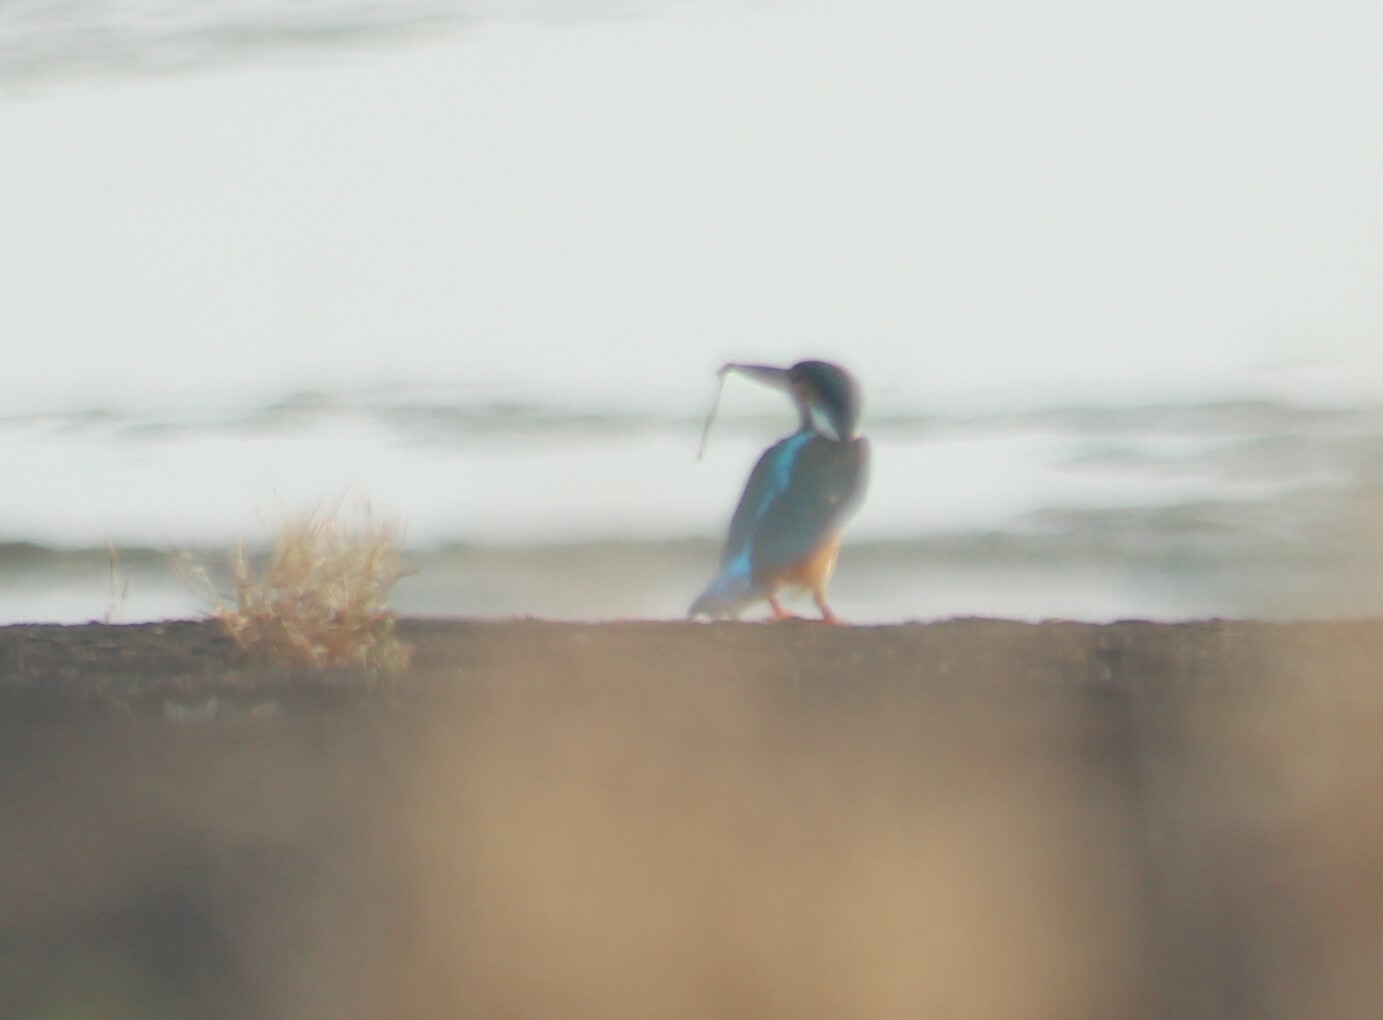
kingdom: Animalia
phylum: Chordata
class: Aves
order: Coraciiformes
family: Alcedinidae
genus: Alcedo
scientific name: Alcedo atthis
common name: Common kingfisher
